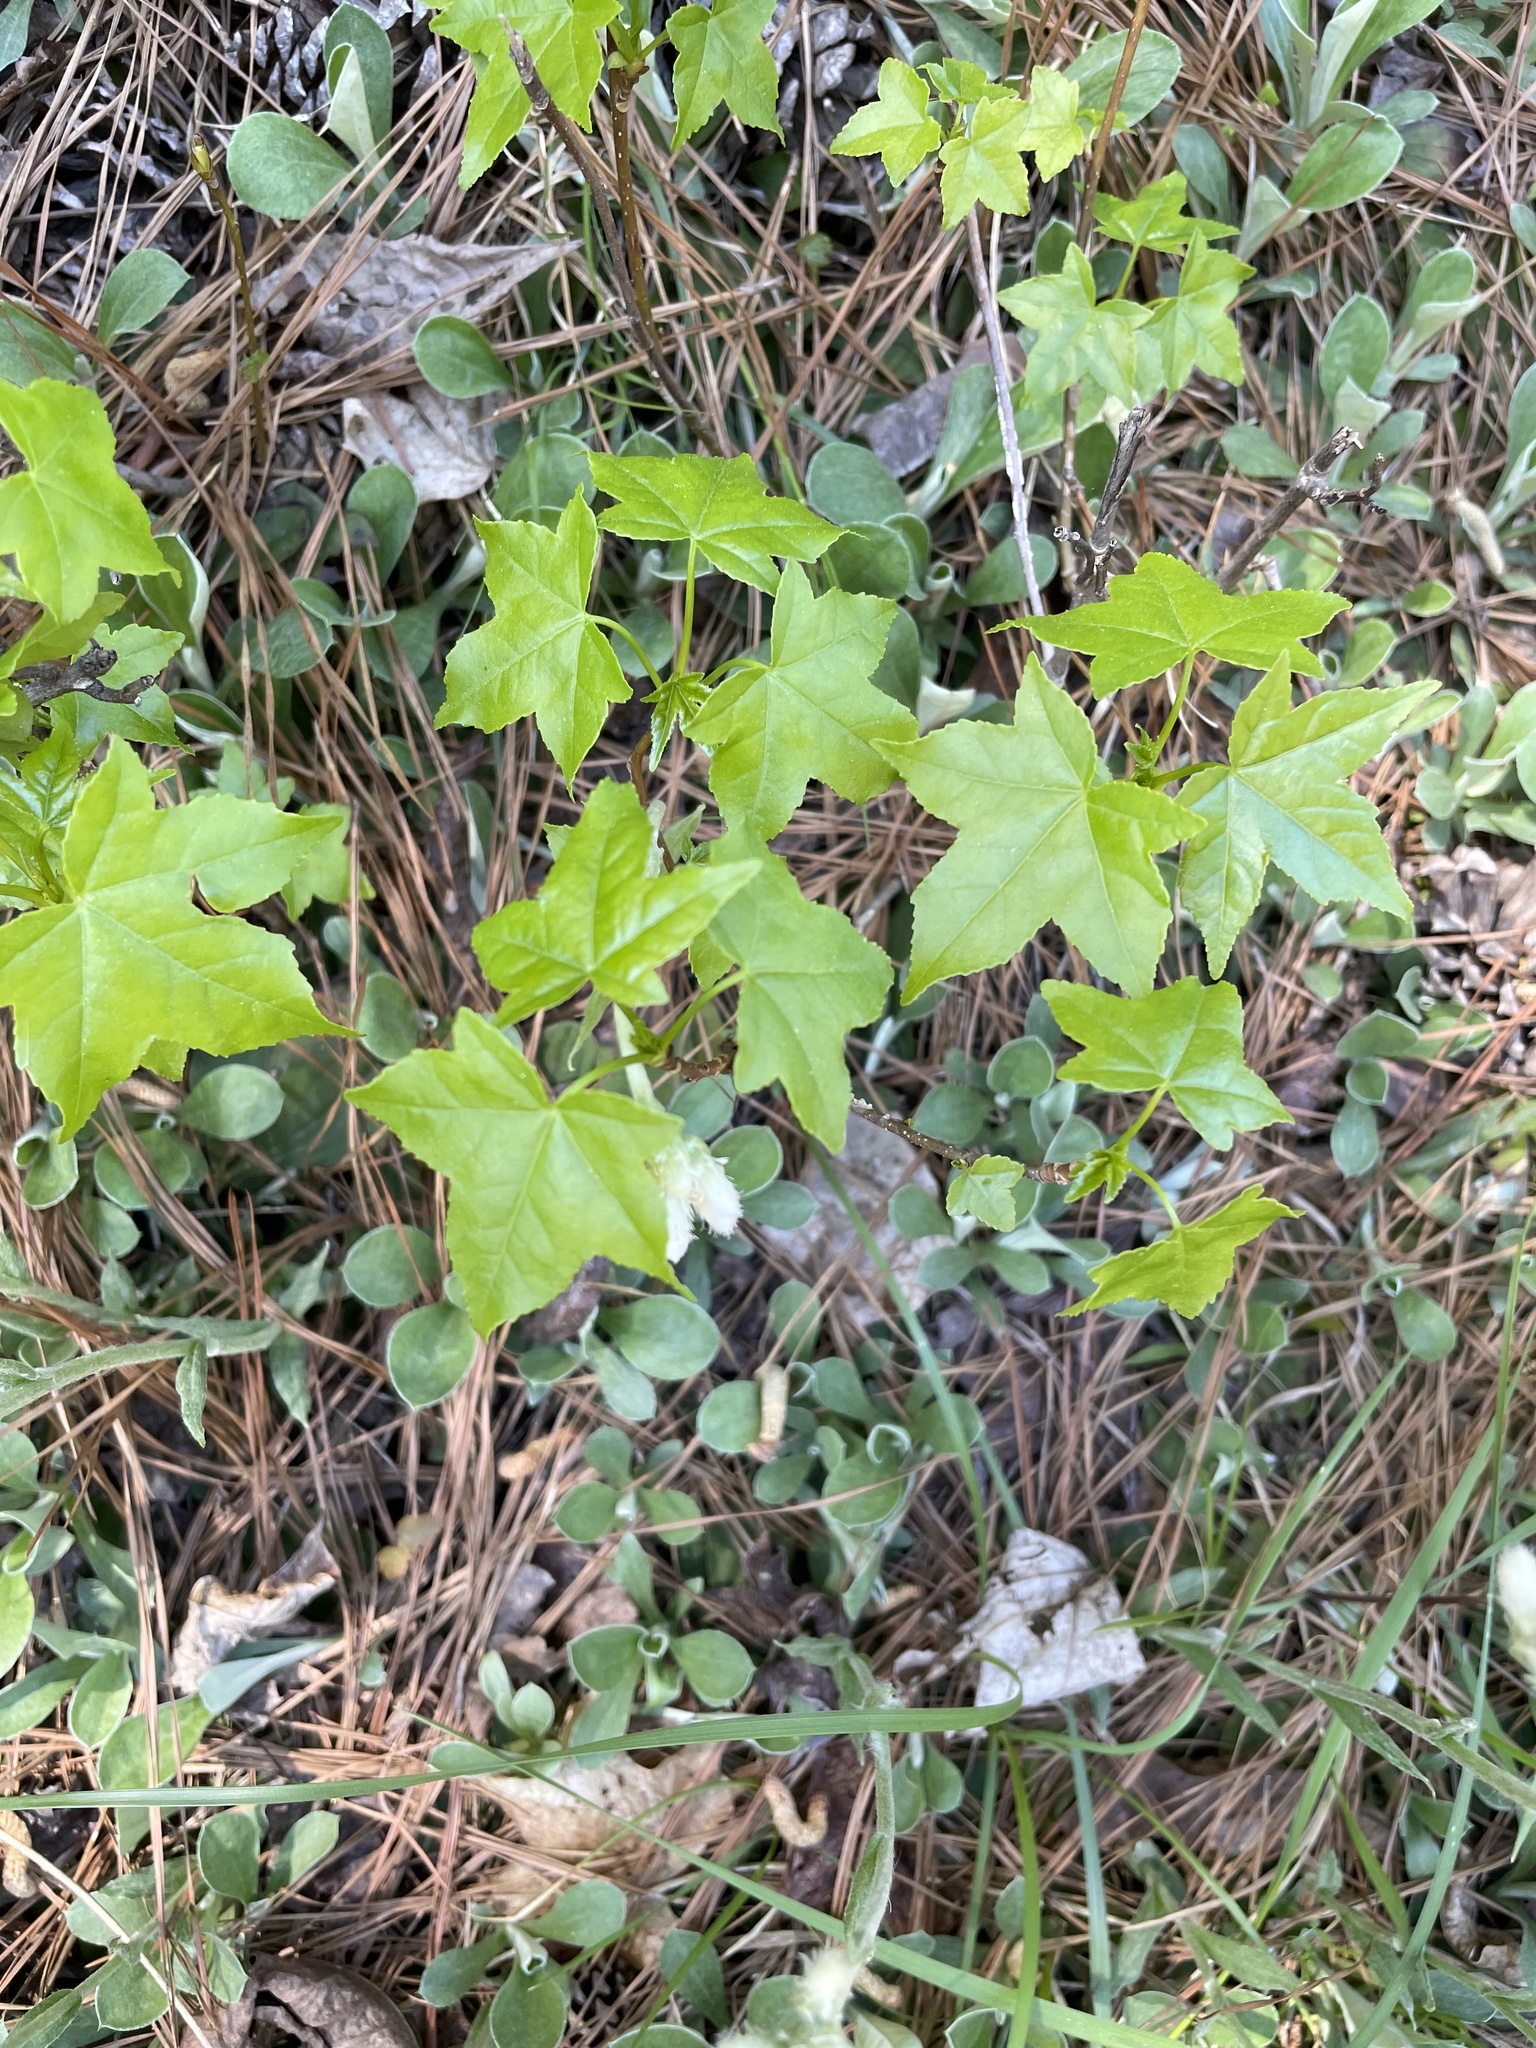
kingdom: Plantae
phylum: Tracheophyta
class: Magnoliopsida
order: Saxifragales
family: Altingiaceae
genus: Liquidambar
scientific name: Liquidambar styraciflua
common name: Sweet gum
